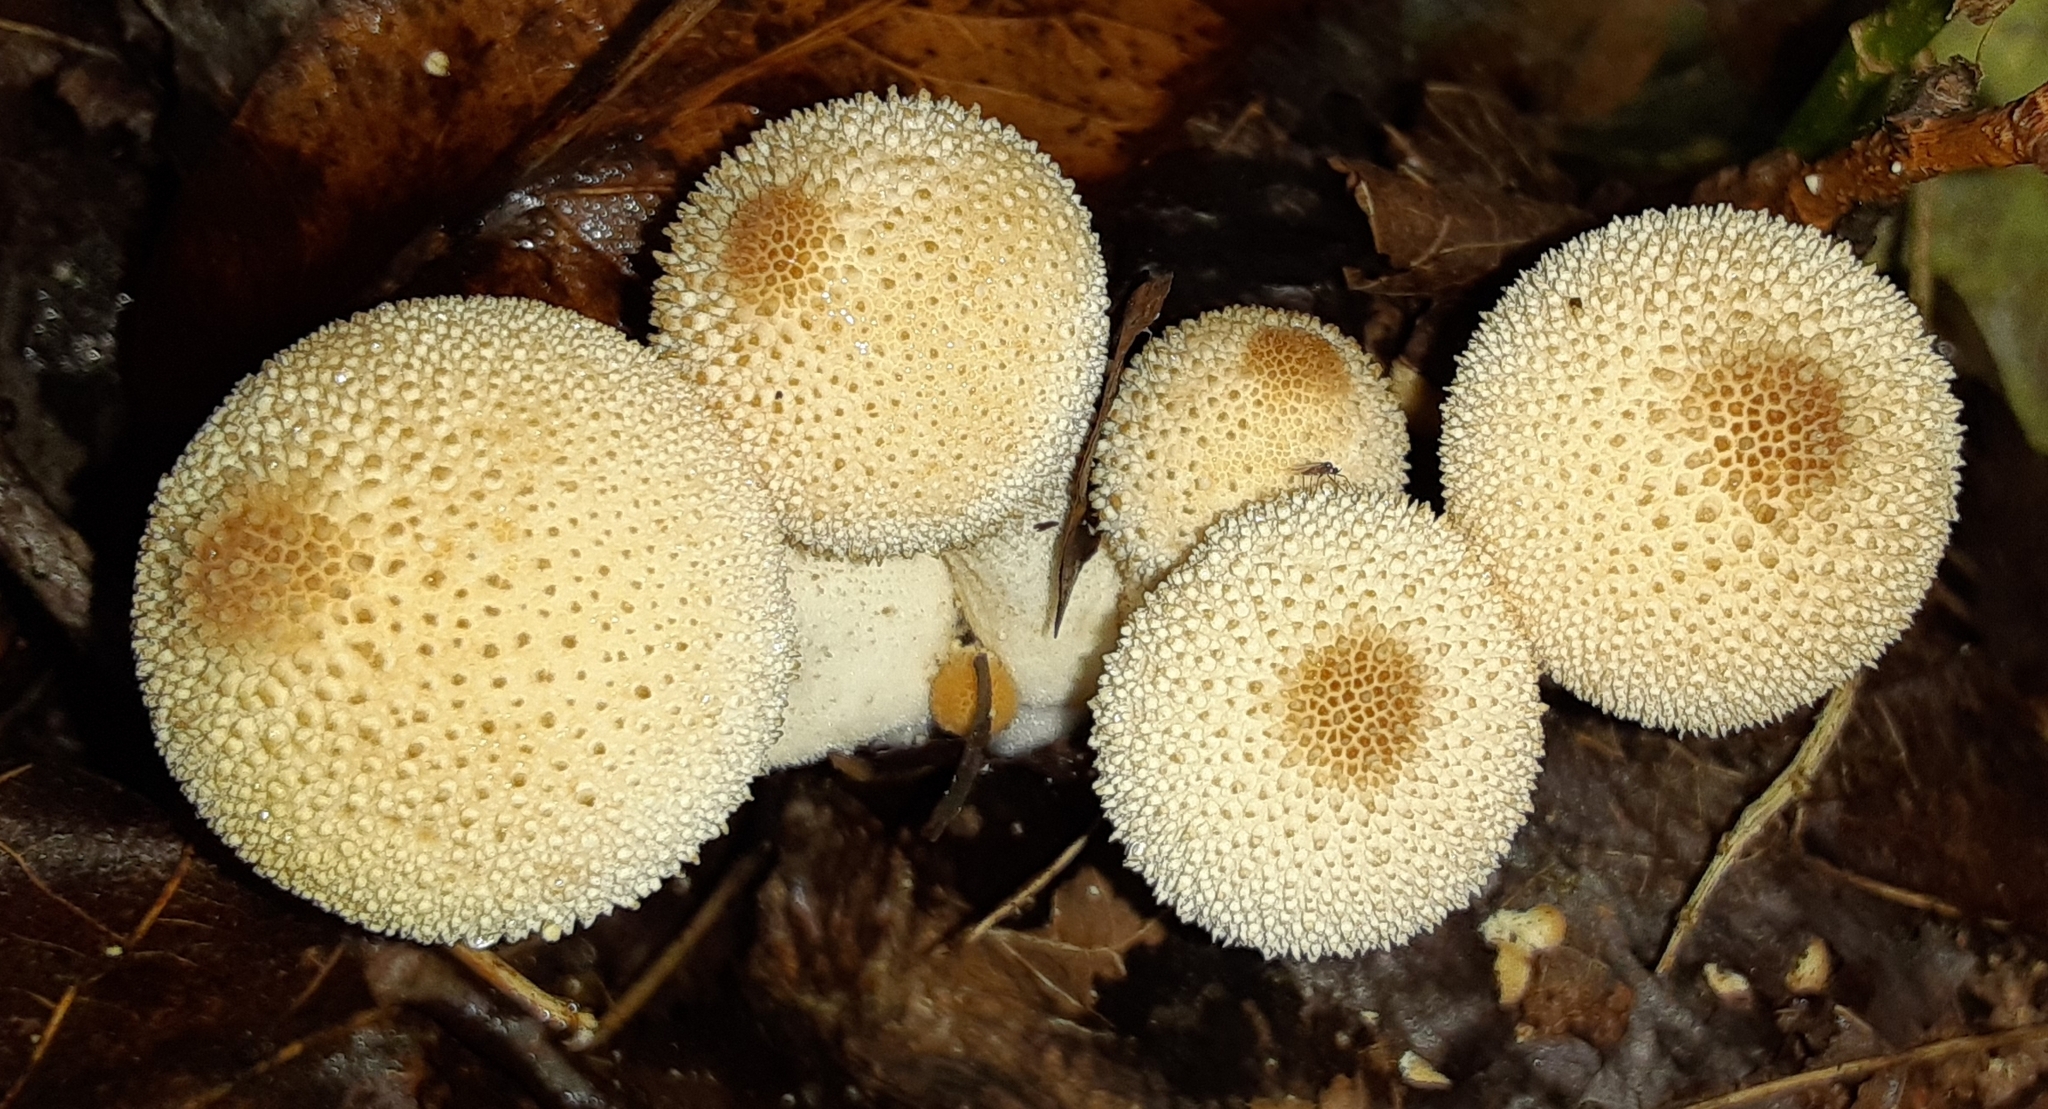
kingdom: Fungi
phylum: Basidiomycota
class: Agaricomycetes
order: Agaricales
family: Lycoperdaceae
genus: Lycoperdon
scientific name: Lycoperdon perlatum
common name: Common puffball
